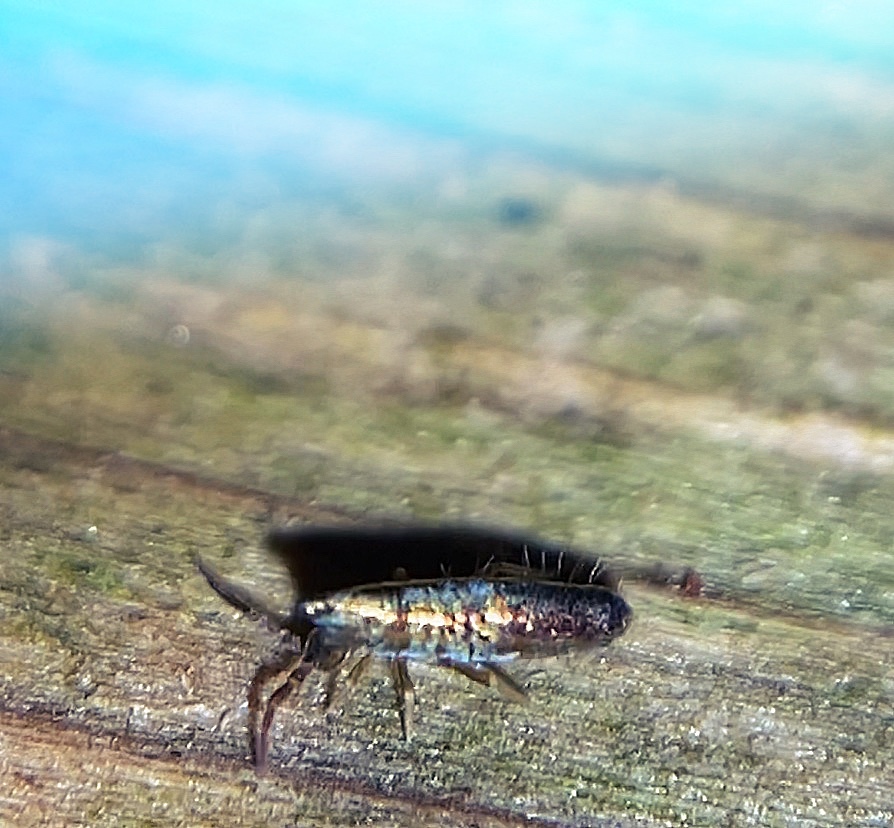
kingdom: Animalia
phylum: Arthropoda
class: Collembola
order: Entomobryomorpha
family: Entomobryidae
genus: Lepidocyrtus
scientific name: Lepidocyrtus paradoxus
